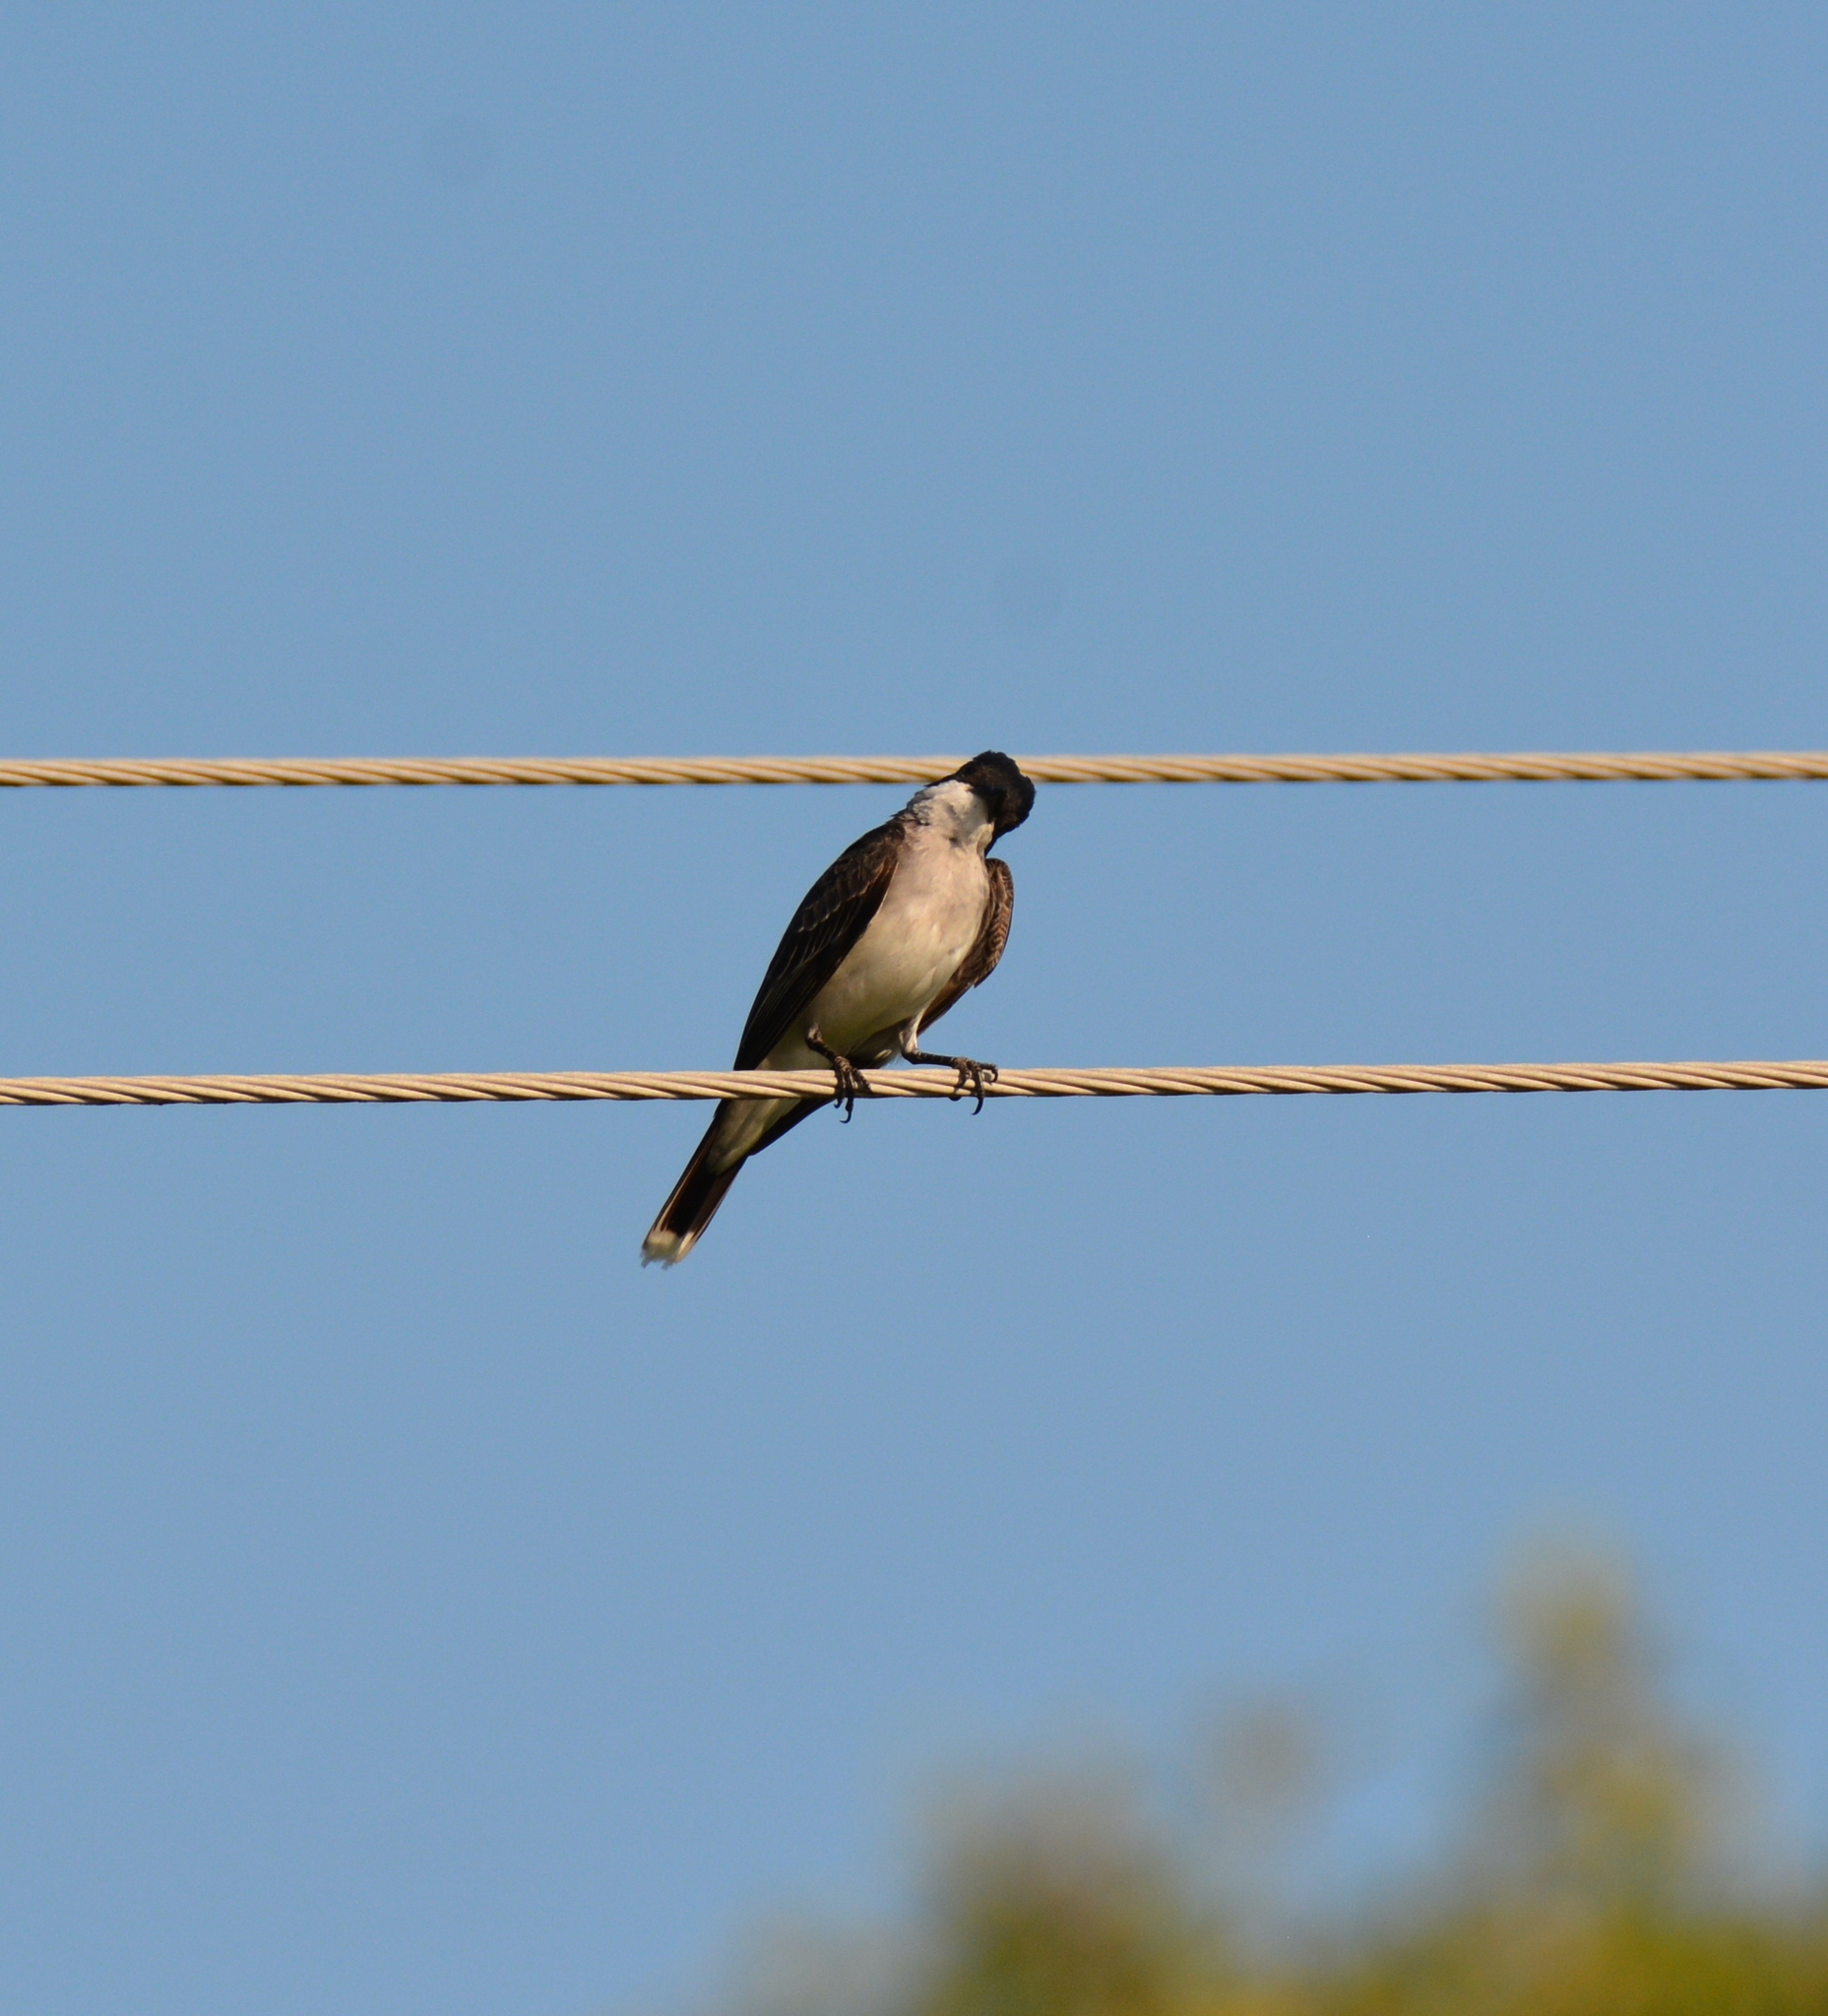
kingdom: Animalia
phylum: Chordata
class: Aves
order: Passeriformes
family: Tyrannidae
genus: Tyrannus
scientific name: Tyrannus tyrannus
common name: Eastern kingbird
